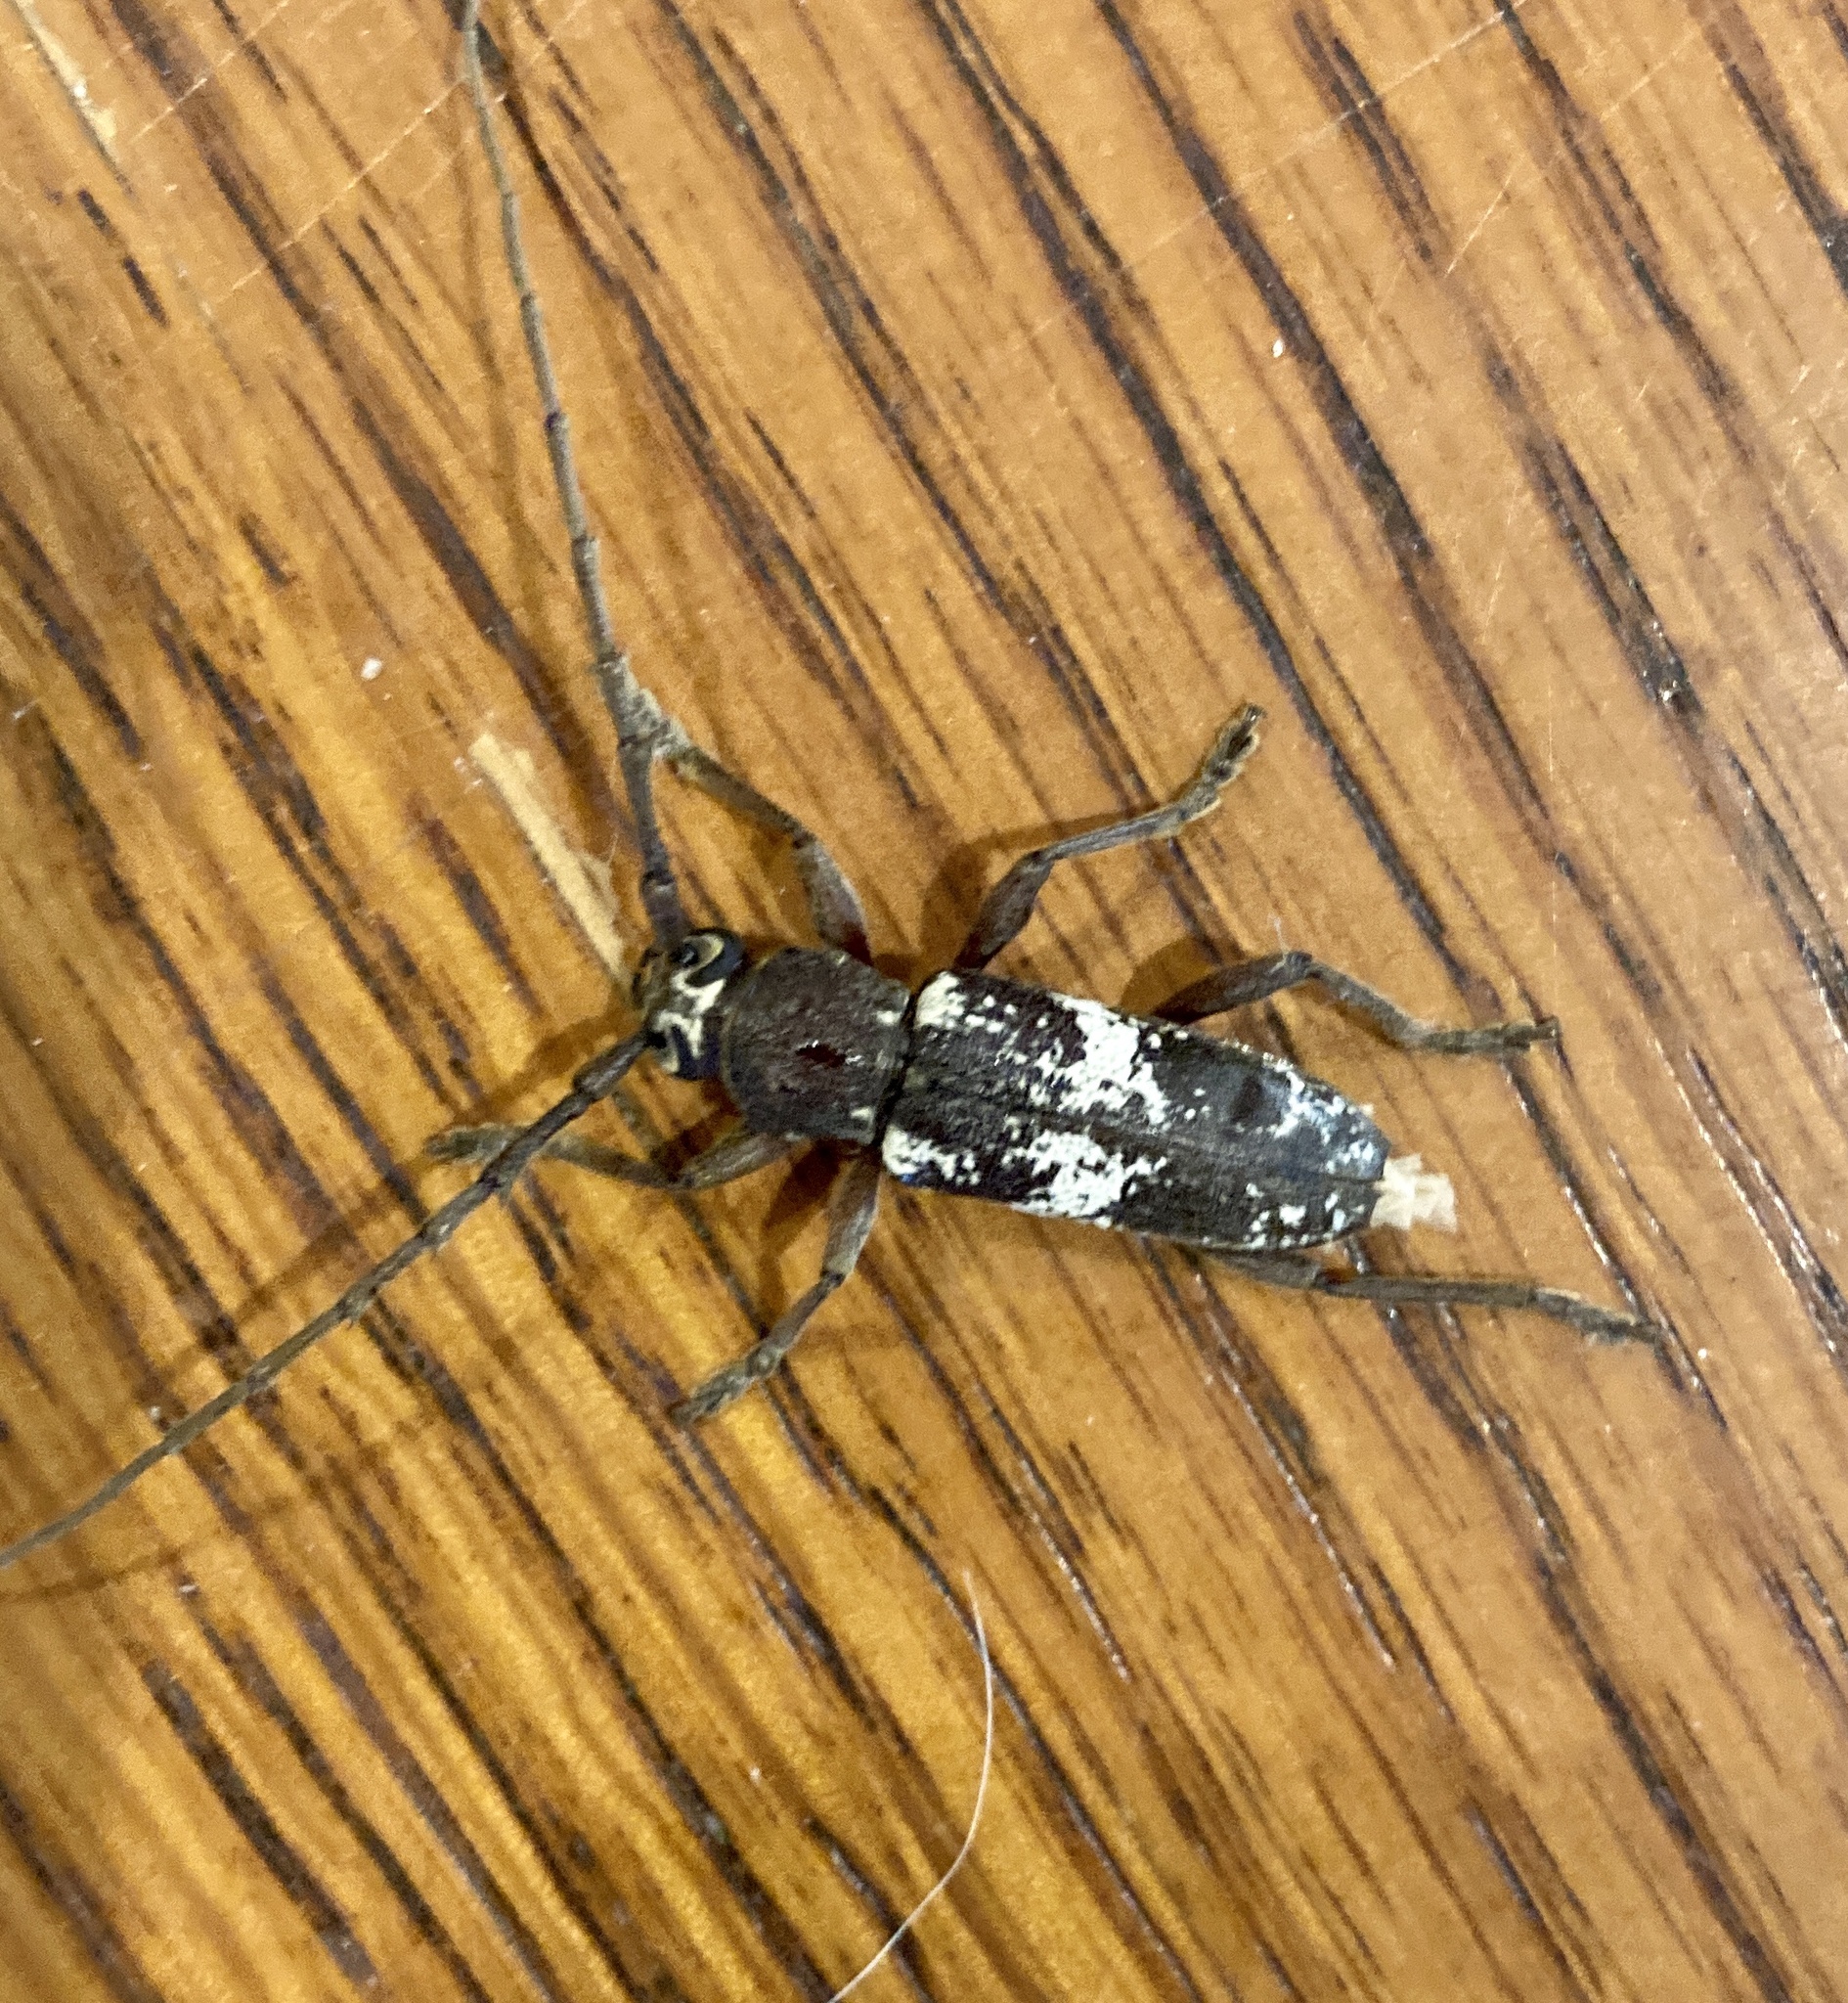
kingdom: Animalia
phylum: Arthropoda
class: Insecta
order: Coleoptera
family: Cerambycidae
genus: Enaphalodes
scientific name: Enaphalodes taeniatus
